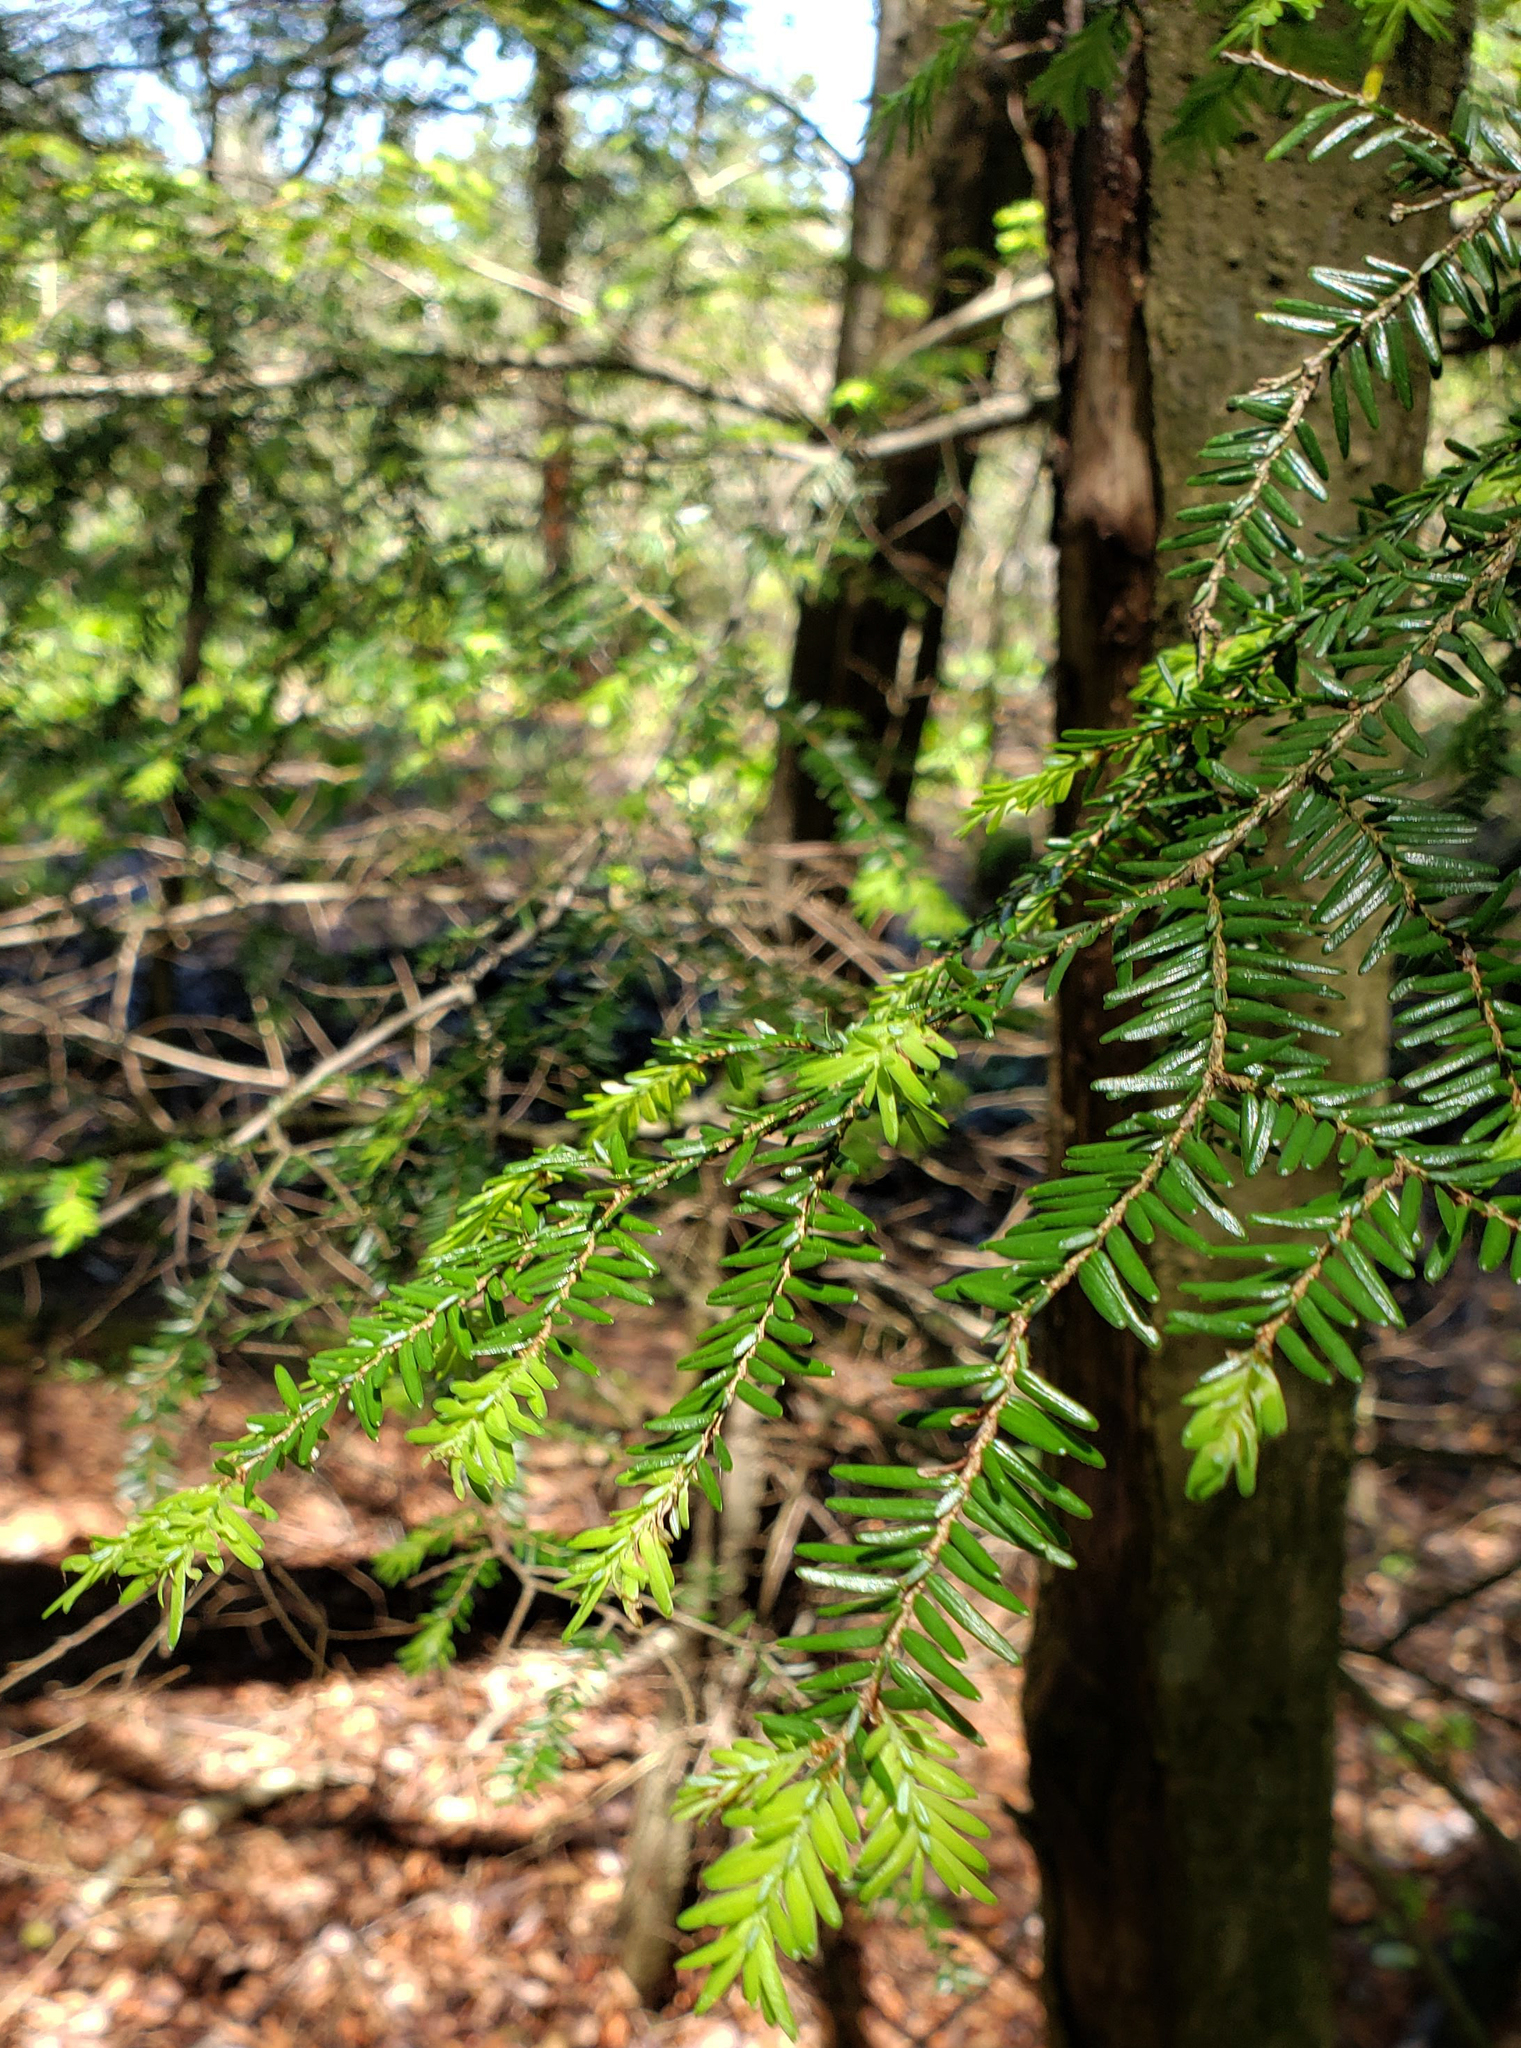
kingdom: Plantae
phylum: Tracheophyta
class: Pinopsida
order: Pinales
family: Pinaceae
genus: Tsuga
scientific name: Tsuga canadensis
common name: Eastern hemlock
